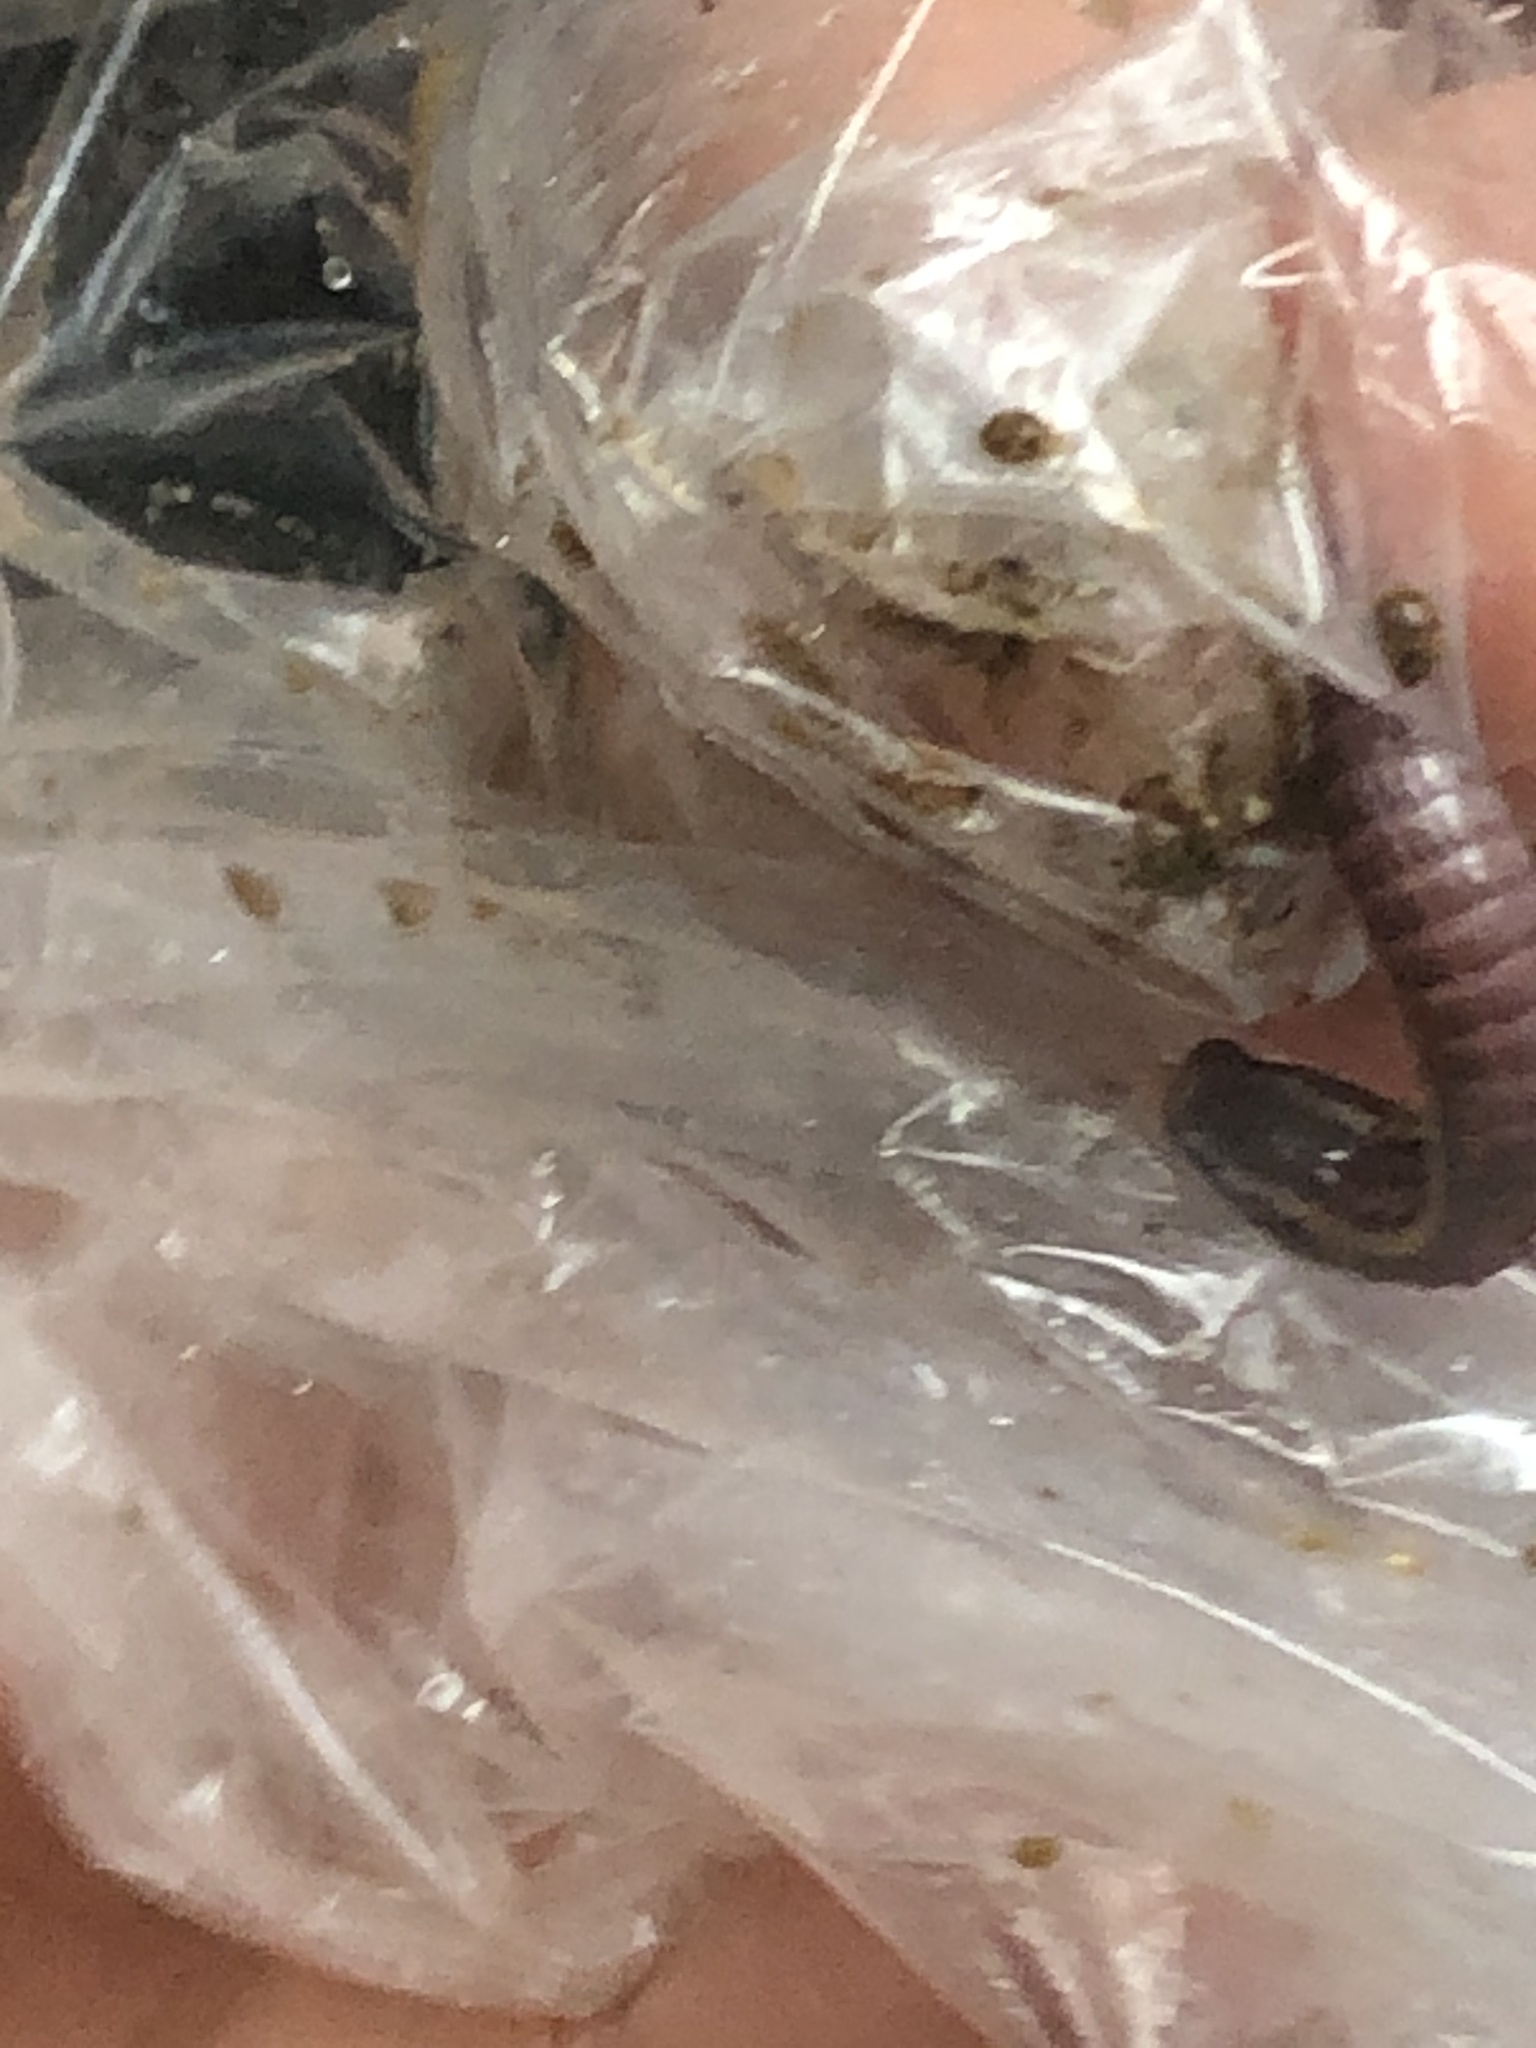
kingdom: Animalia
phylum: Chordata
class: Squamata
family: Gymnophthalmidae
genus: Bachia
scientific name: Bachia dorbignyi
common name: Dorbigny's bachia
